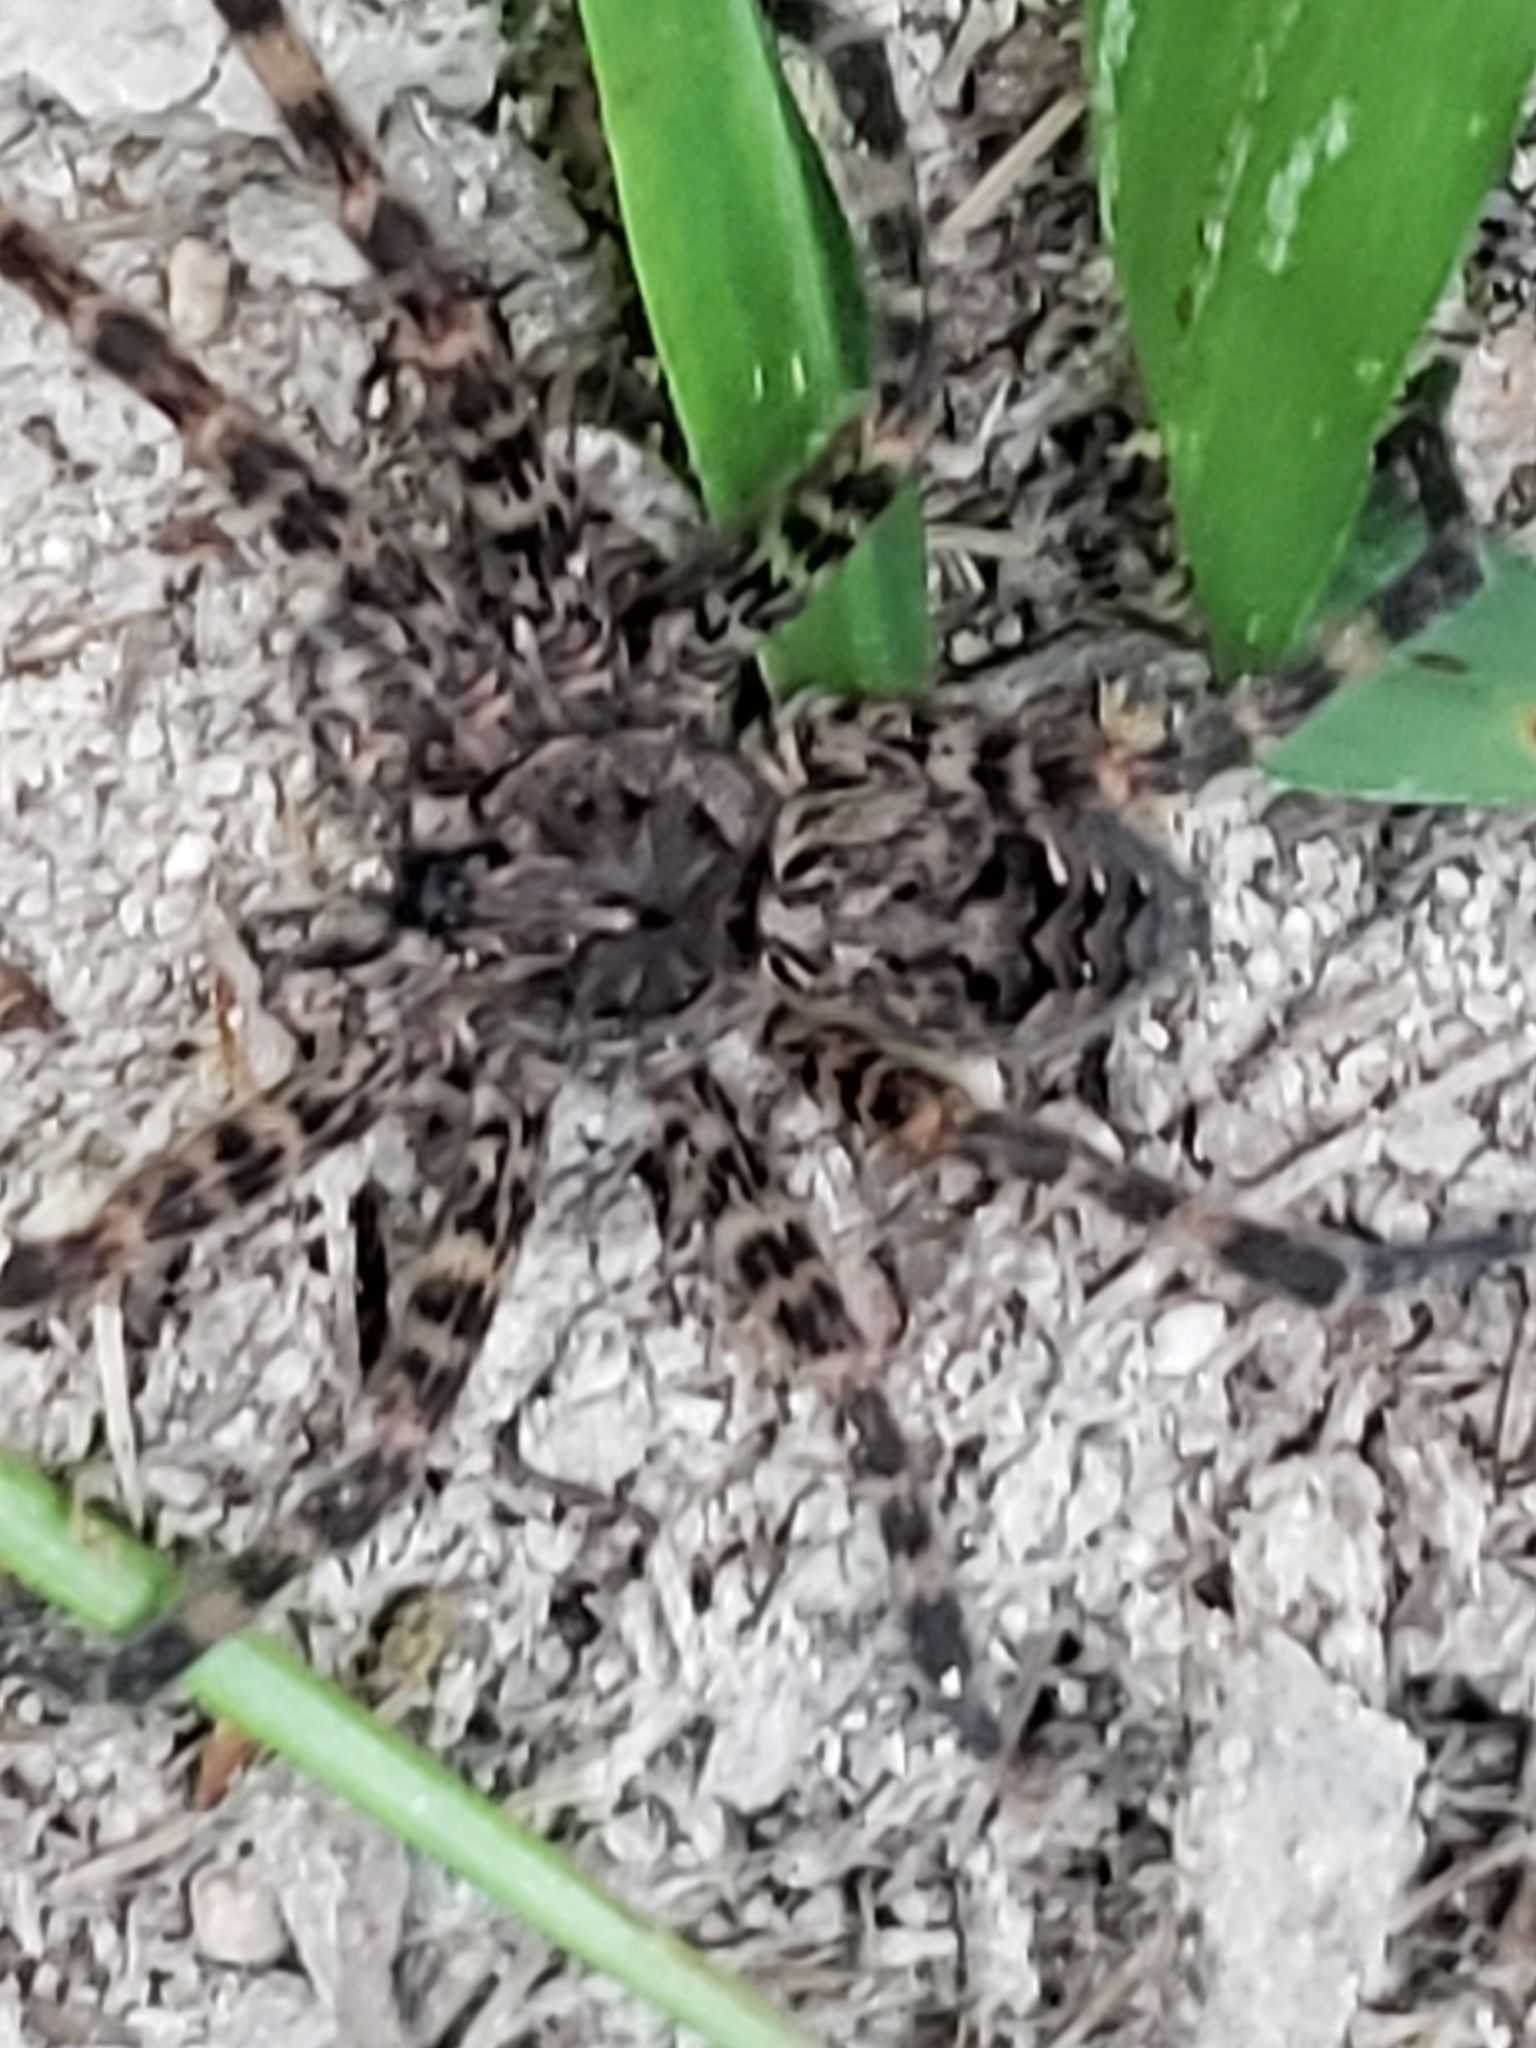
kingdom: Animalia
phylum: Arthropoda
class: Arachnida
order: Araneae
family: Pisauridae
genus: Dolomedes
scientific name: Dolomedes tenebrosus
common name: Dark fishing spider
